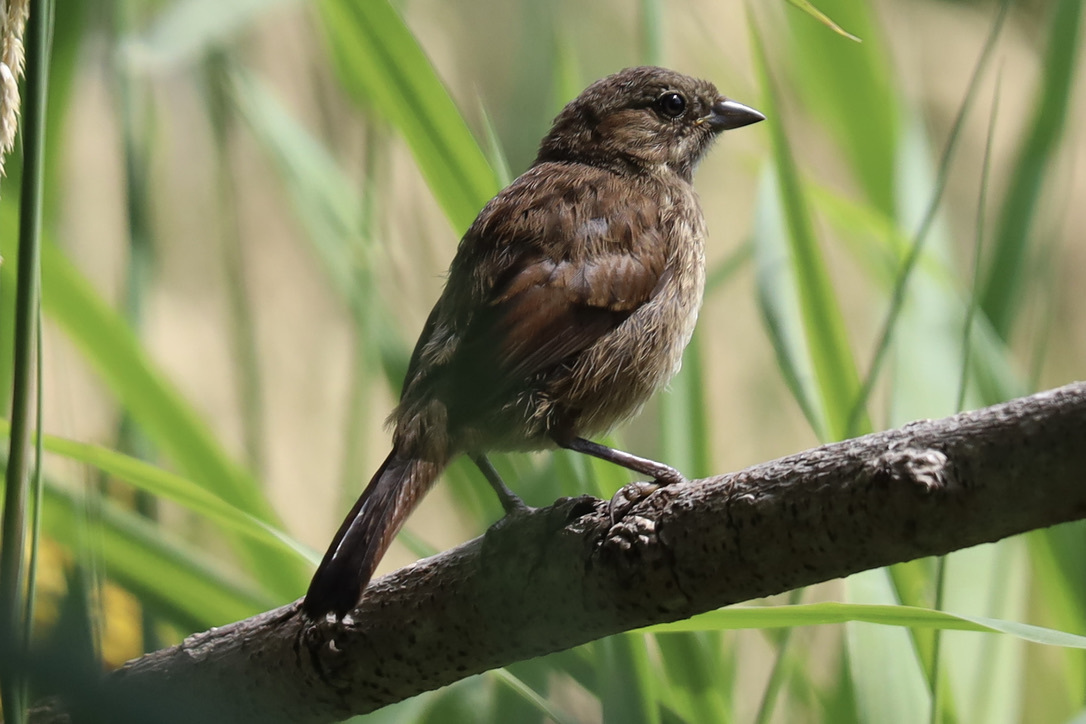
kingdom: Animalia
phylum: Chordata
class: Aves
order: Passeriformes
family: Passerellidae
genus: Melospiza
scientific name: Melospiza melodia
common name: Song sparrow
